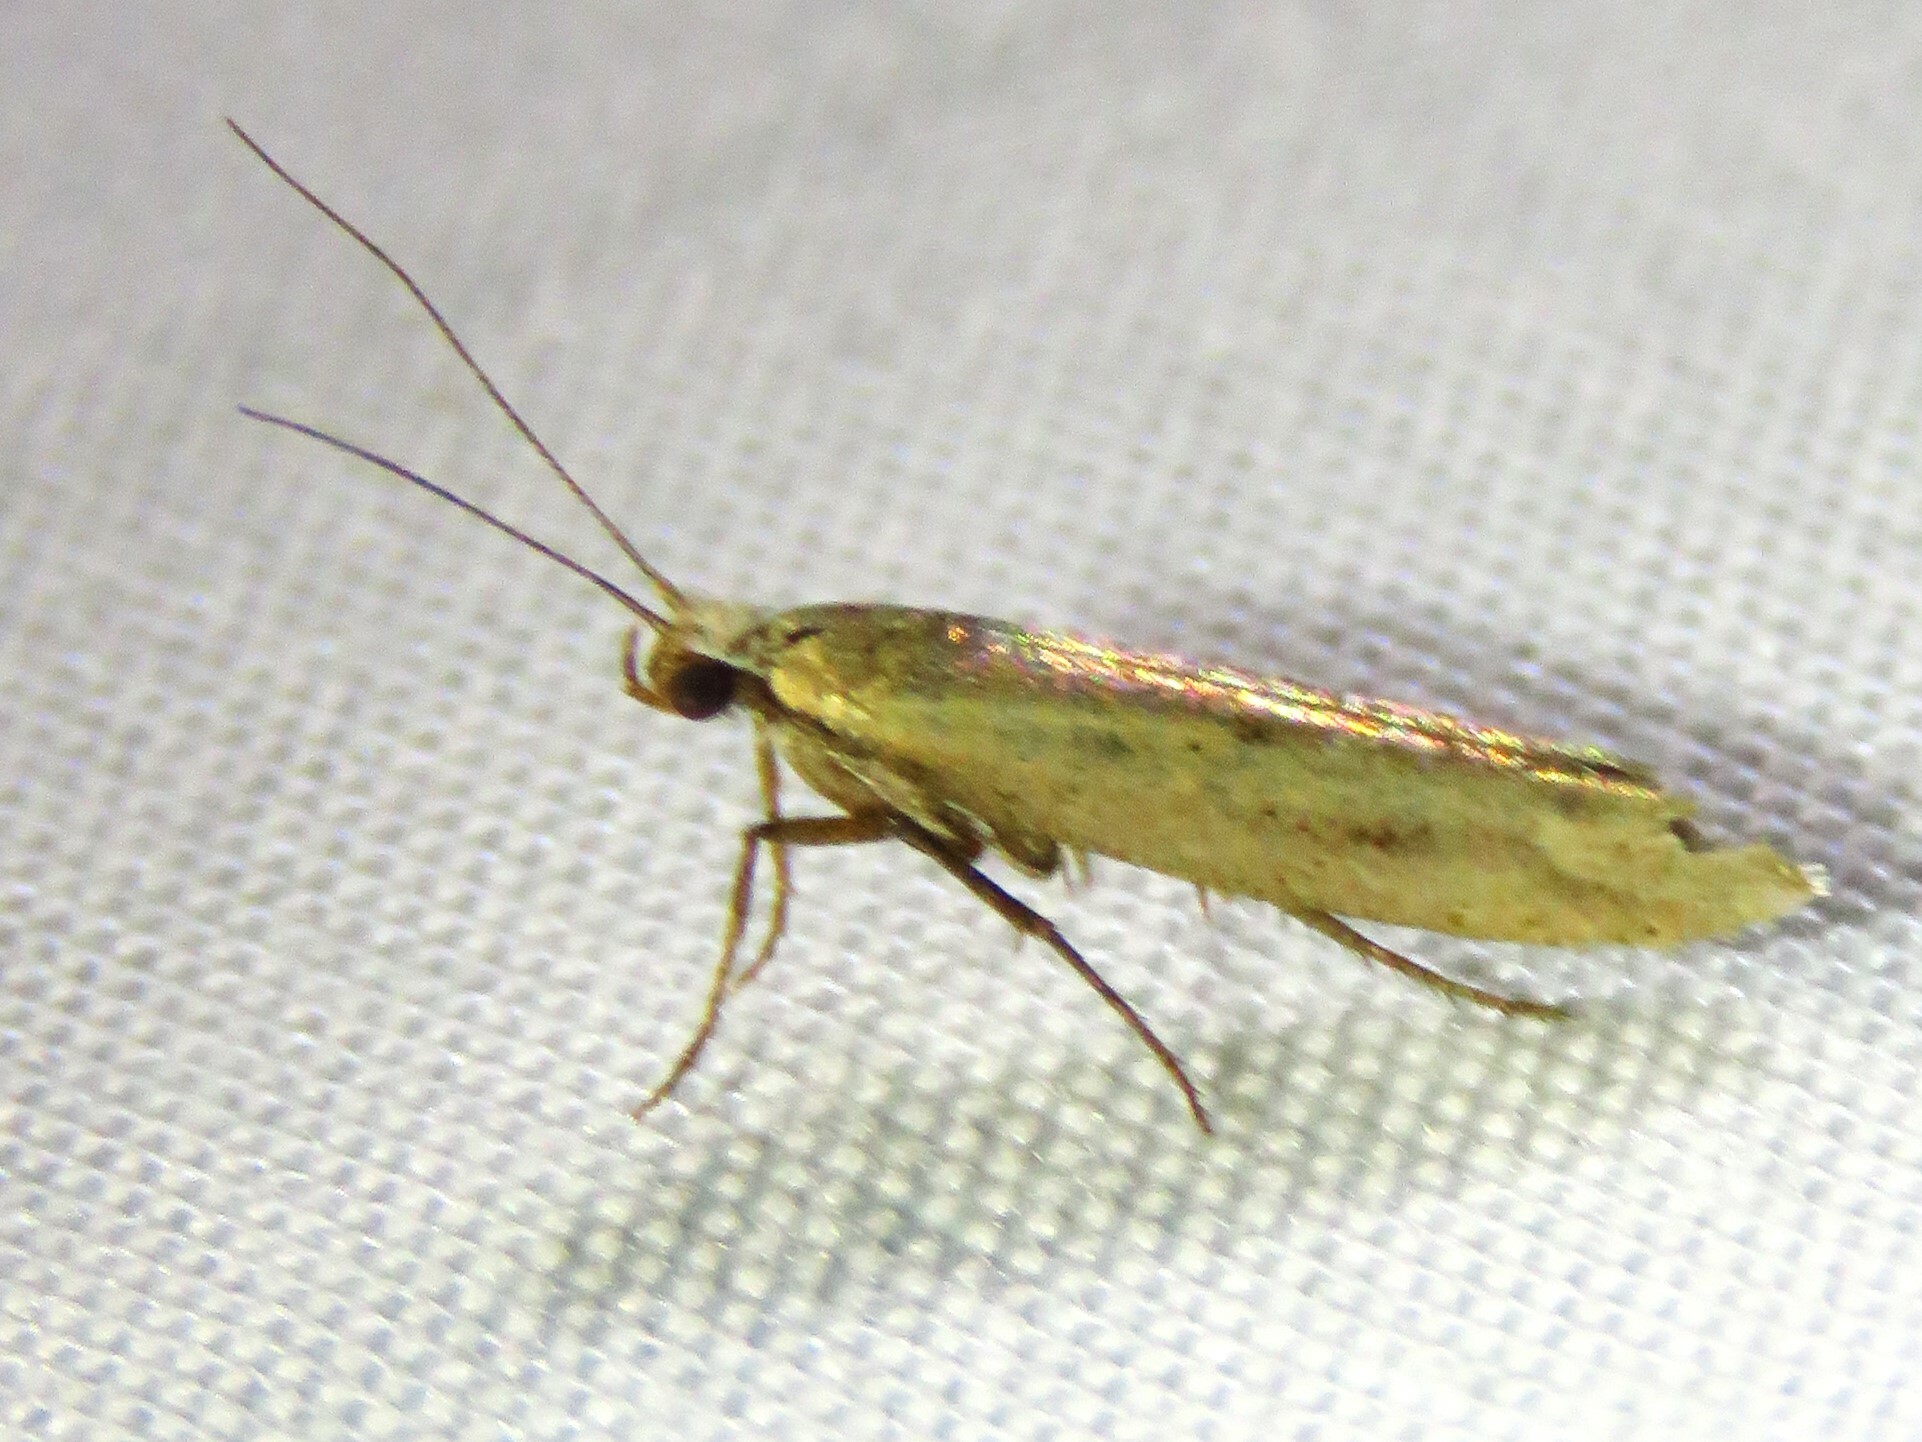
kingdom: Animalia
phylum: Arthropoda
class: Insecta
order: Lepidoptera
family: Ypsolophidae
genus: Ypsolopha
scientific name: Ypsolopha
